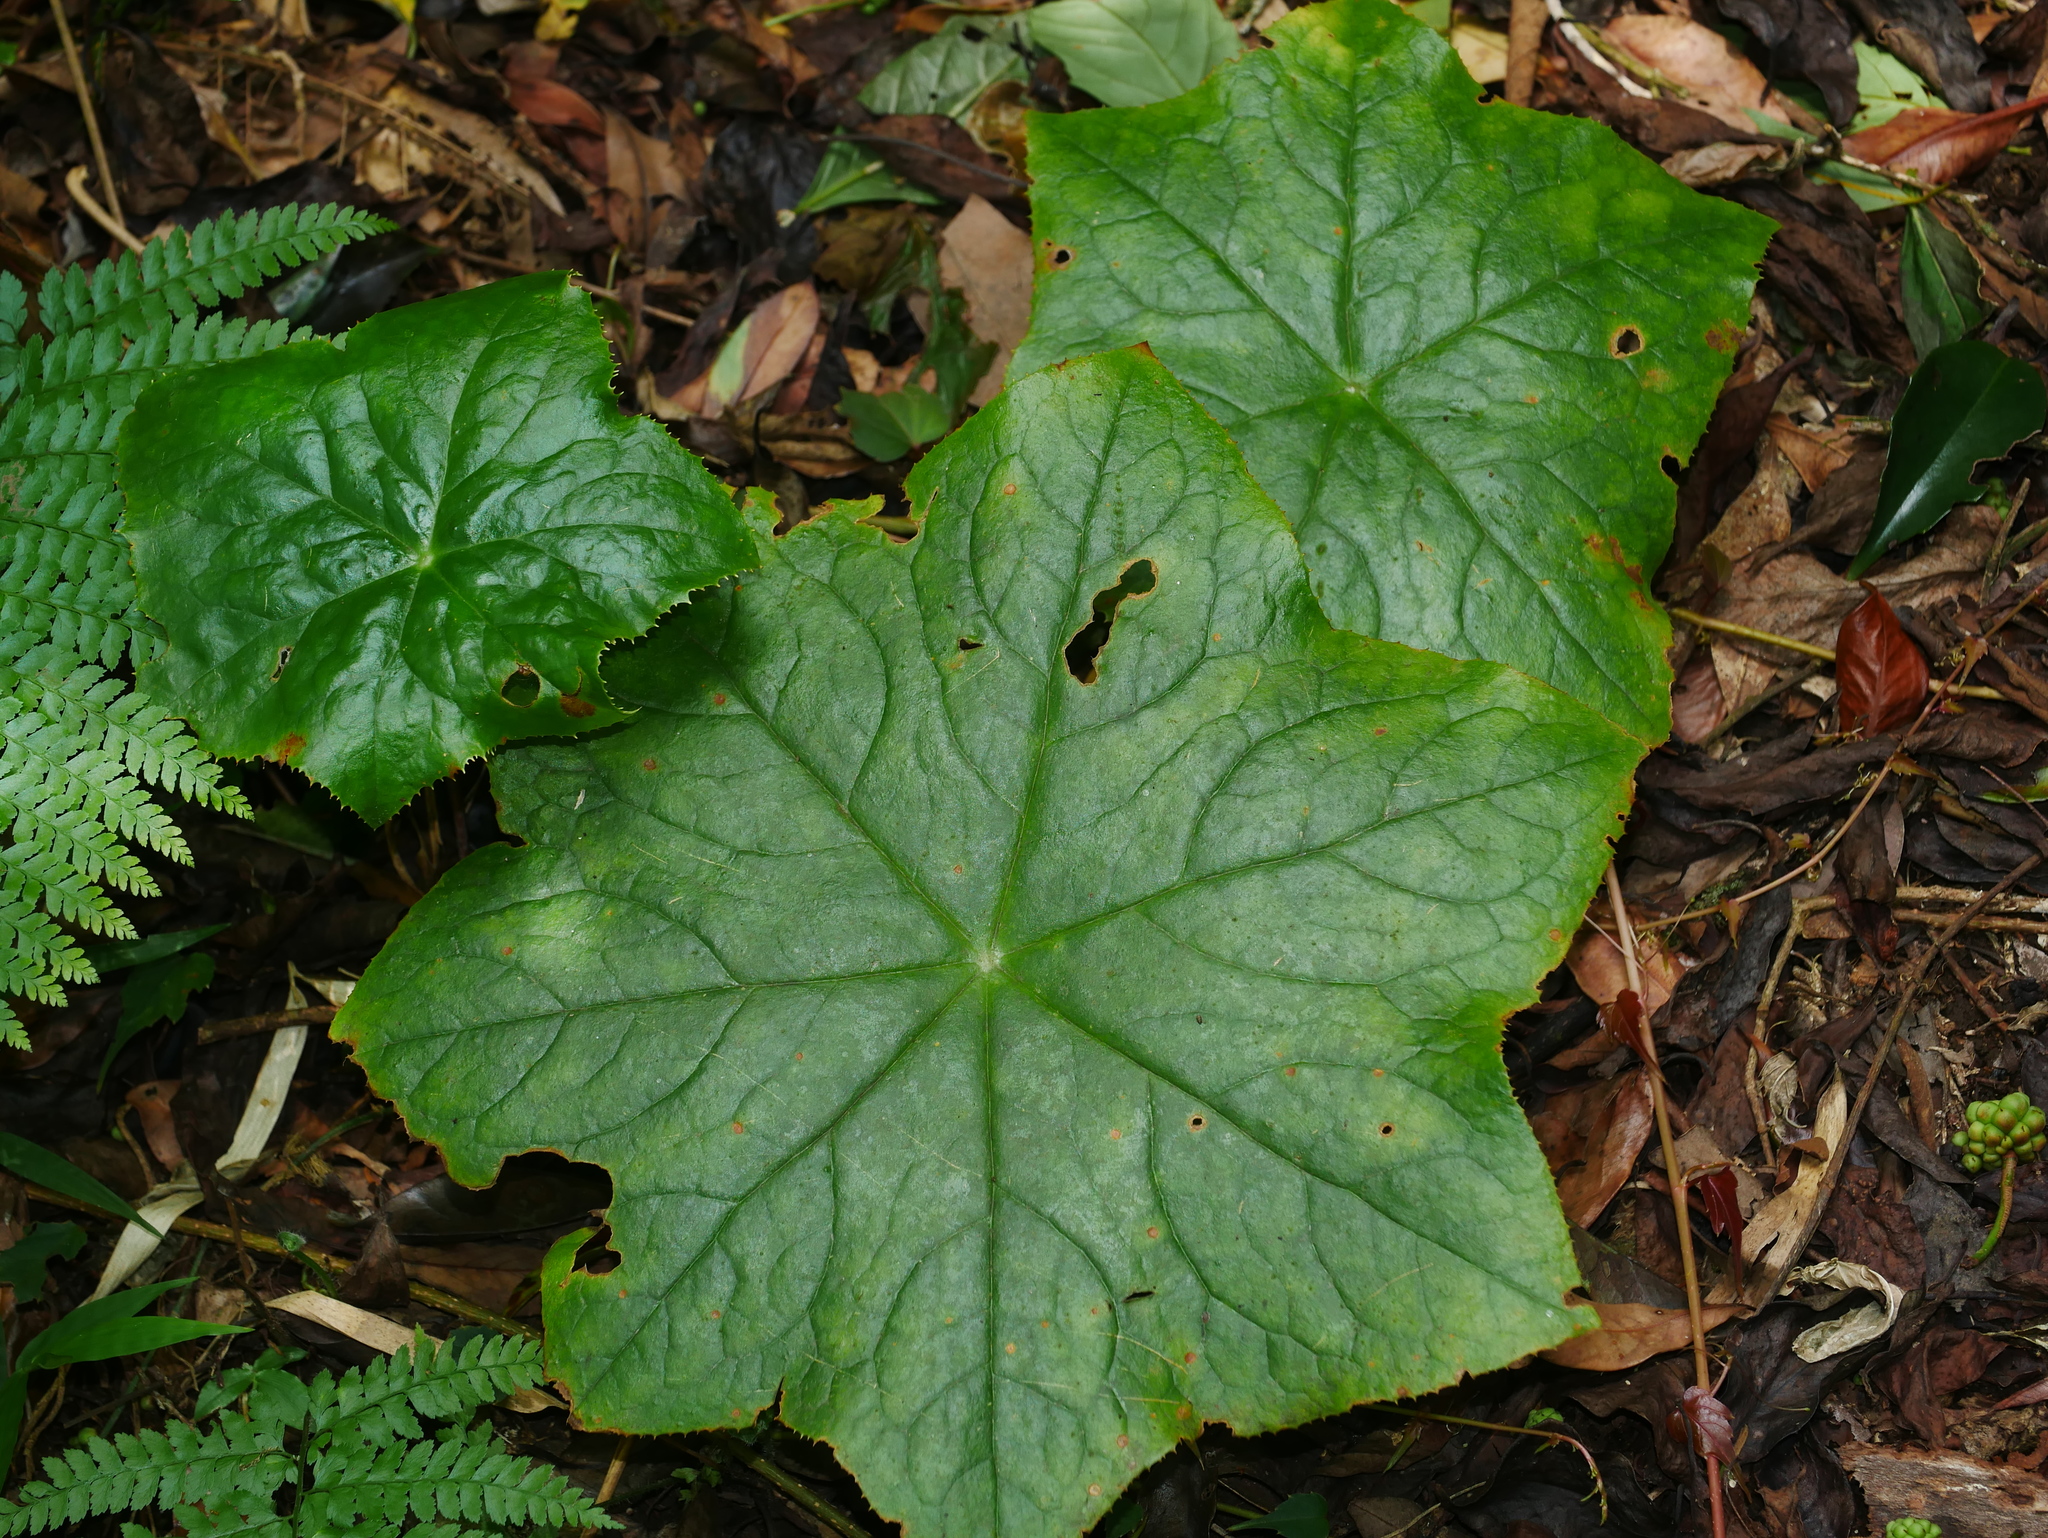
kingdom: Plantae
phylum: Tracheophyta
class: Magnoliopsida
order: Ranunculales
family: Berberidaceae
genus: Dysosma
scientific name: Dysosma pleiantha
